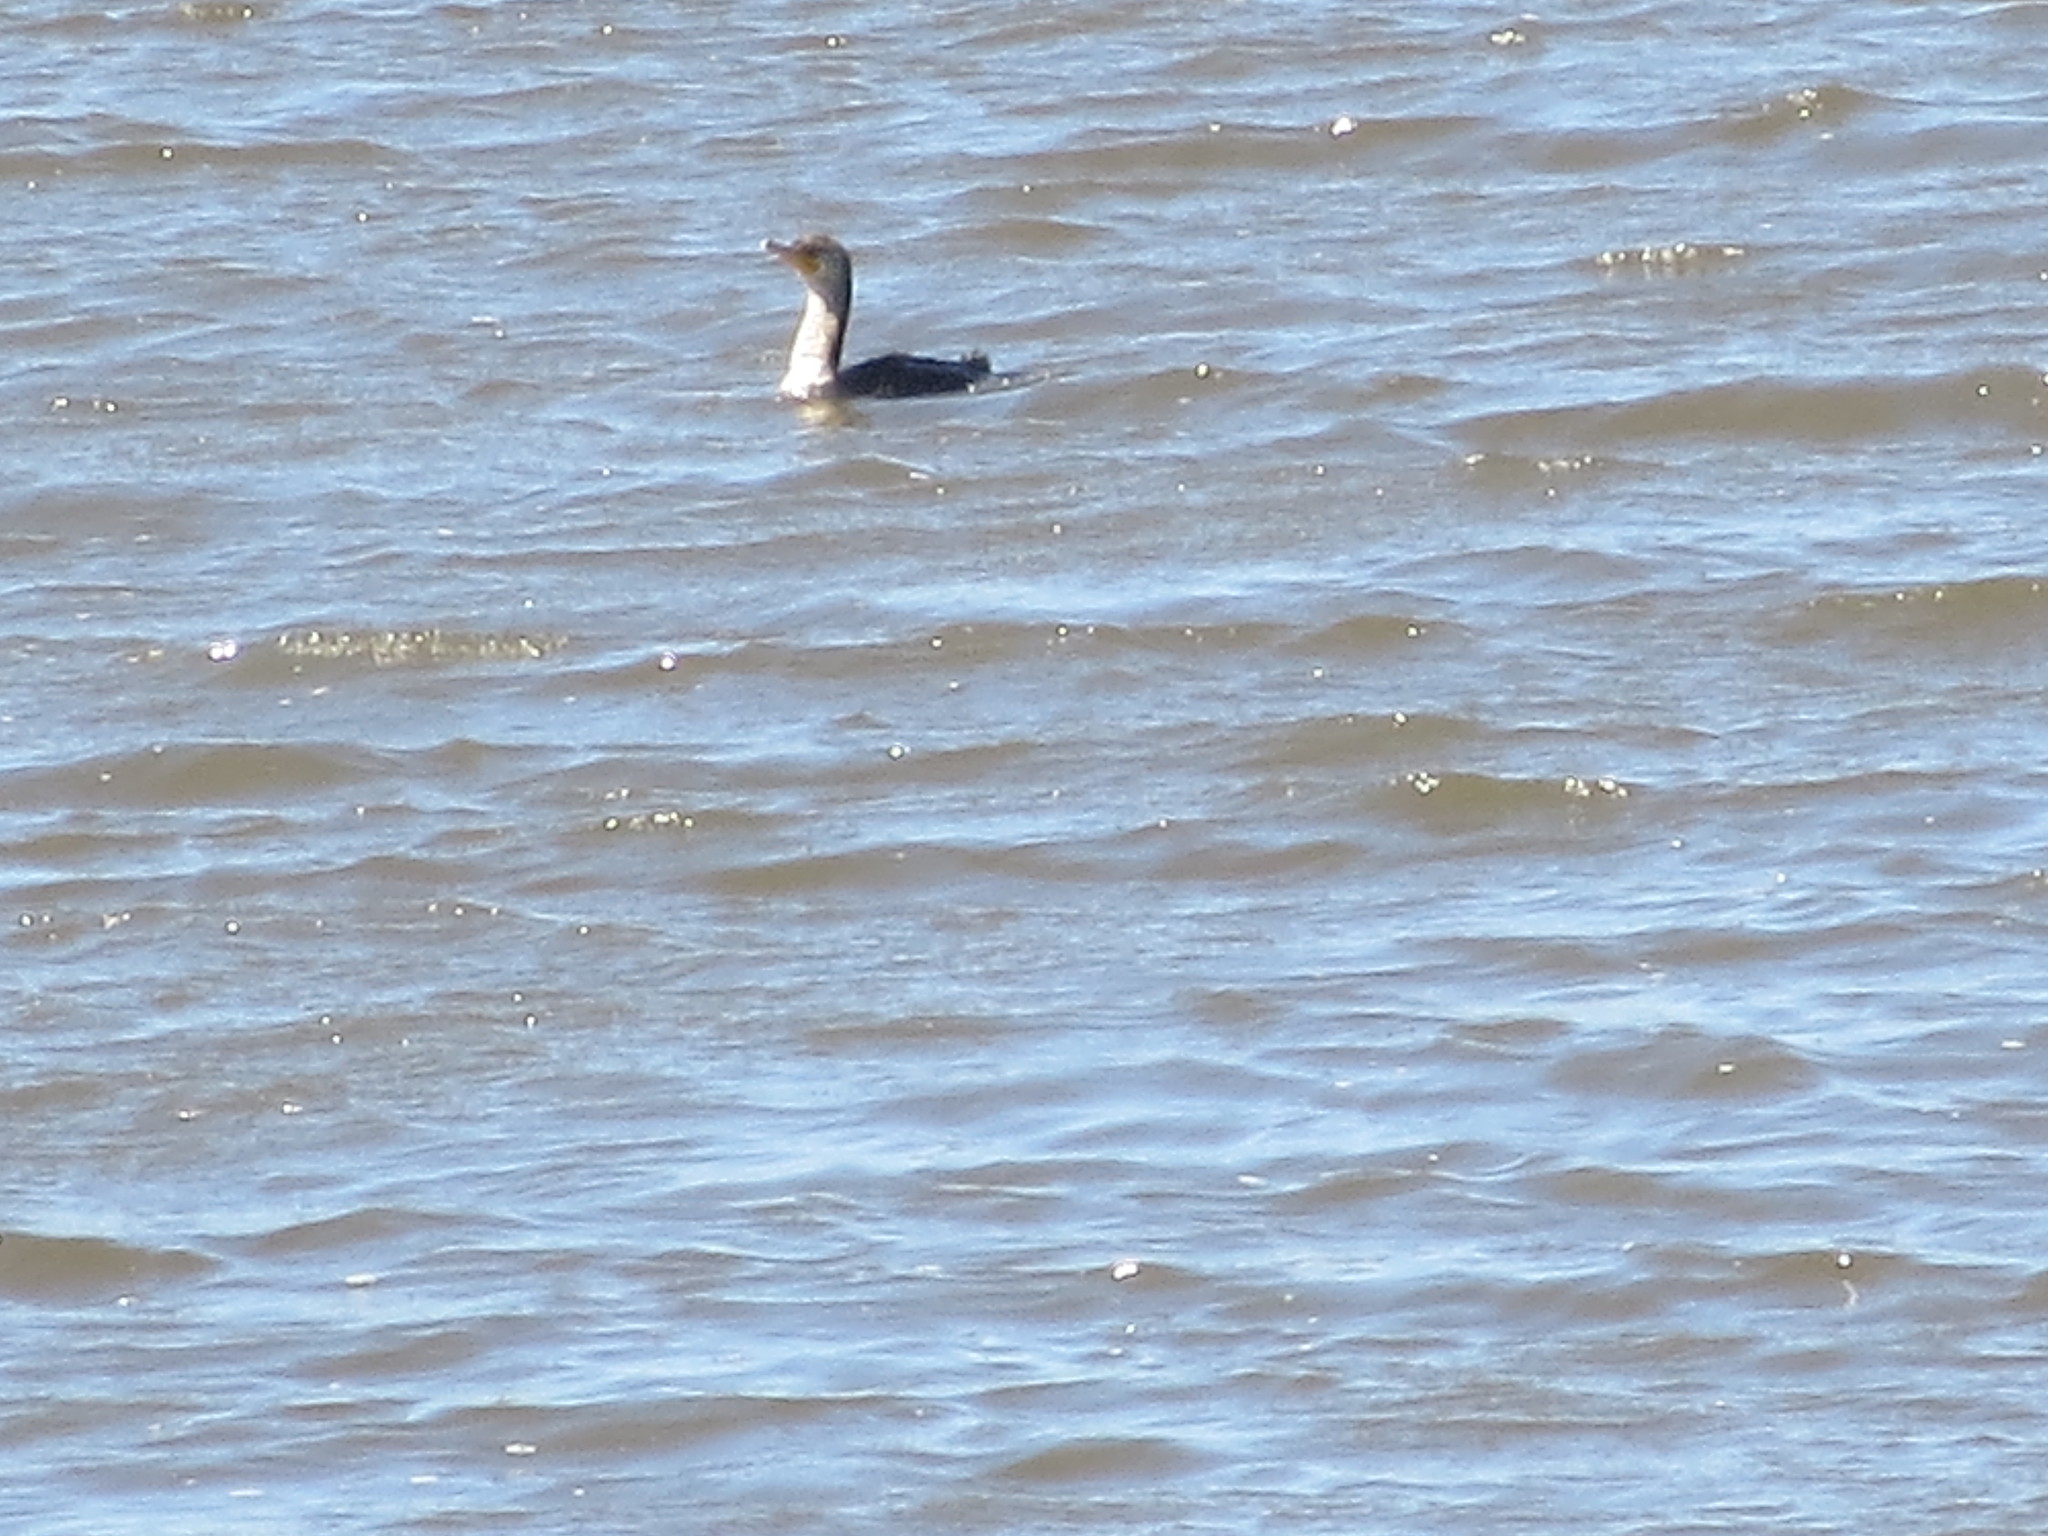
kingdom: Animalia
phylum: Chordata
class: Aves
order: Suliformes
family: Phalacrocoracidae
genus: Phalacrocorax
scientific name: Phalacrocorax auritus
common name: Double-crested cormorant
